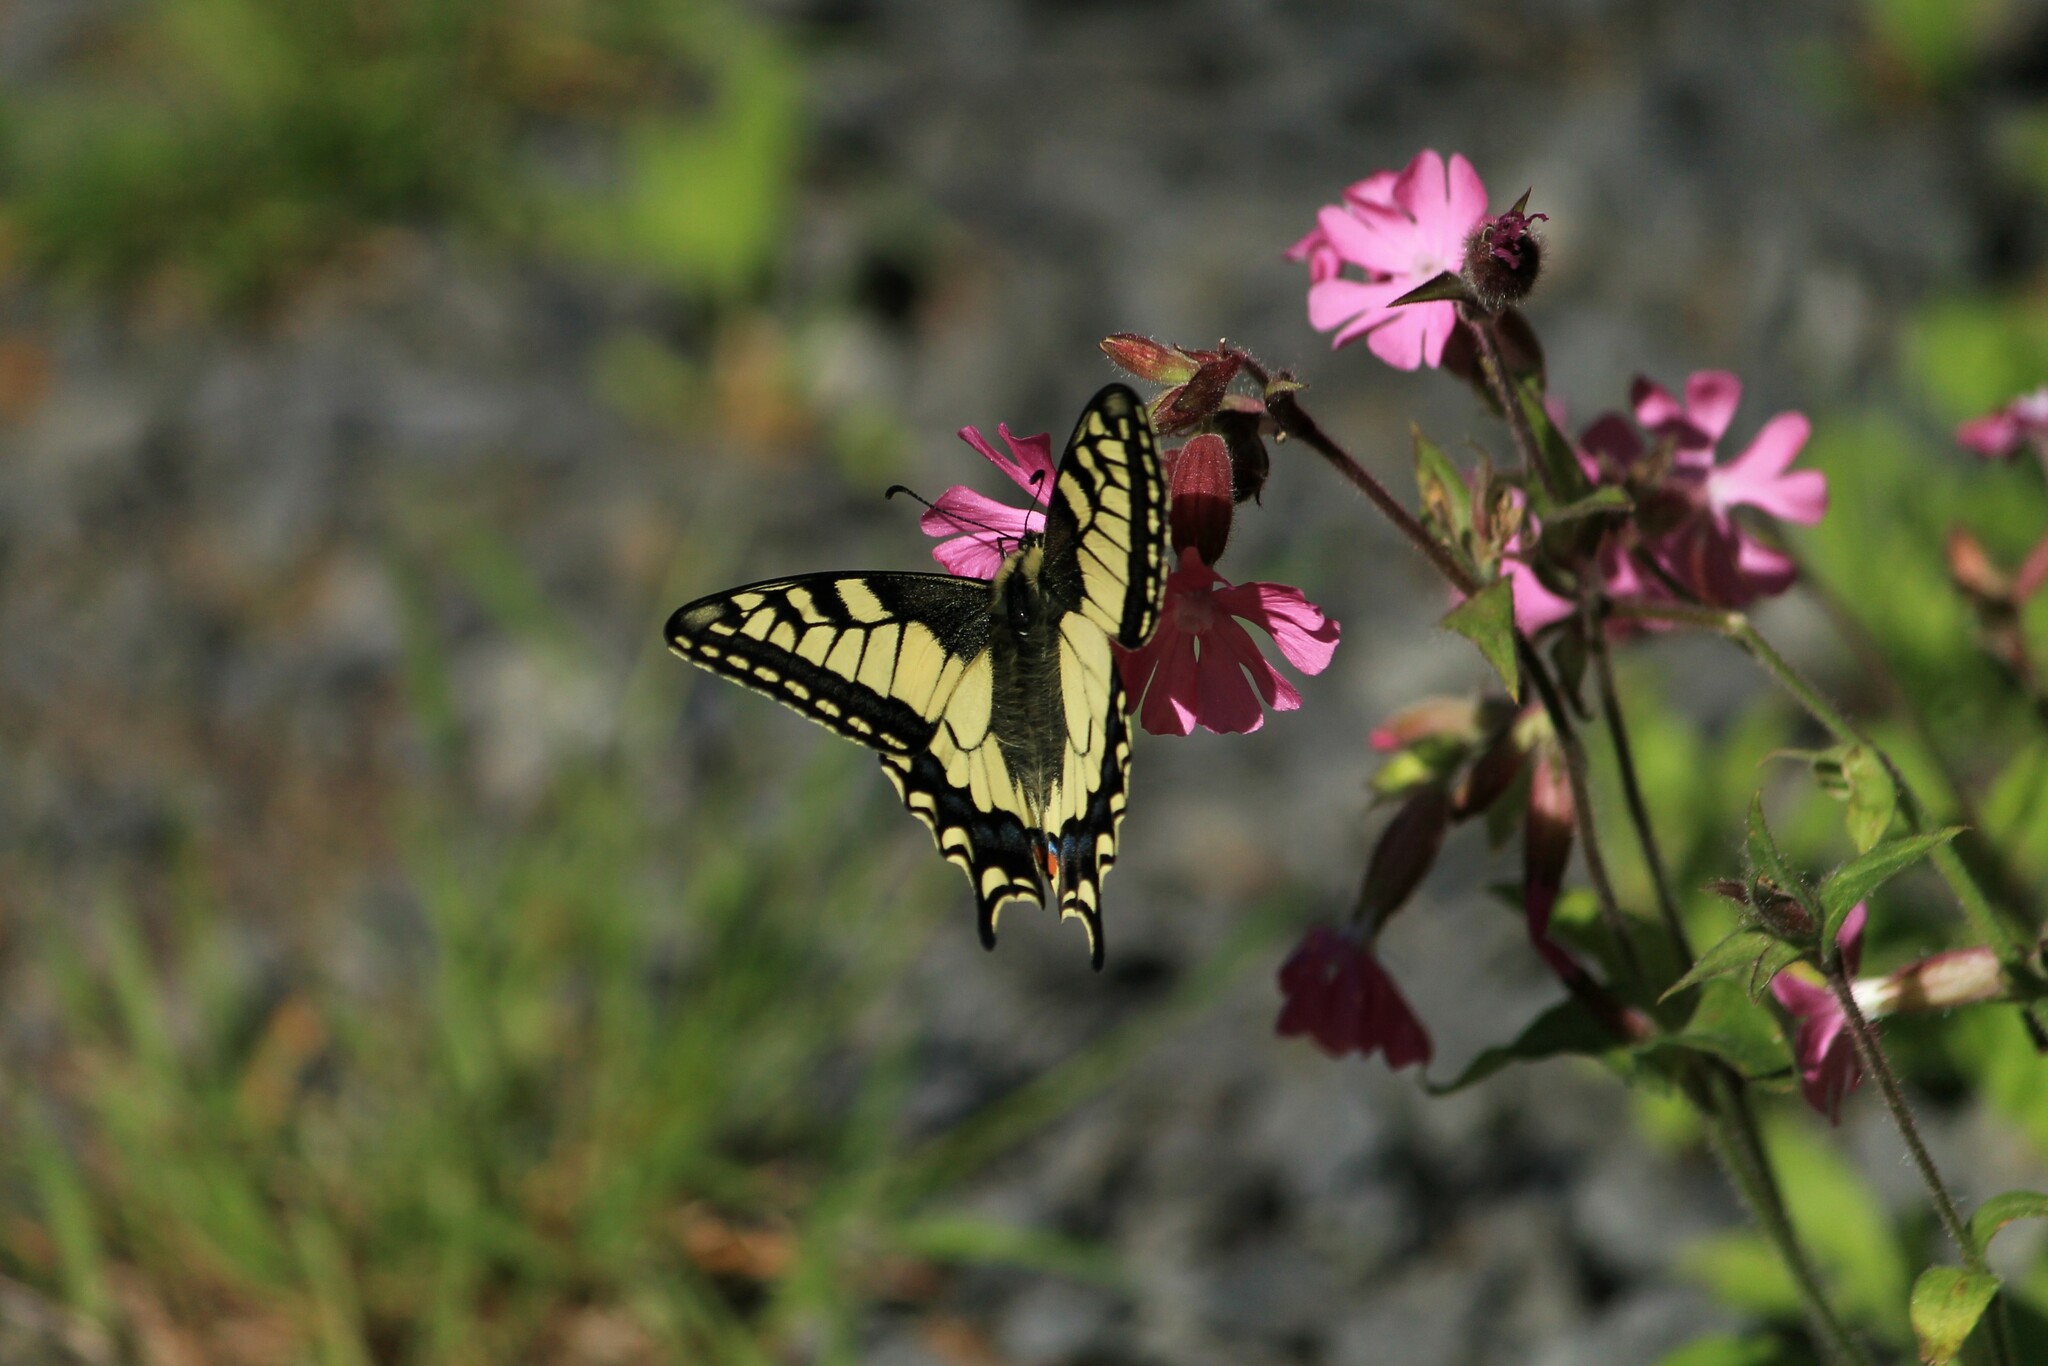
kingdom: Animalia
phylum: Arthropoda
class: Insecta
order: Lepidoptera
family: Papilionidae
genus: Papilio
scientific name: Papilio machaon
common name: Swallowtail
